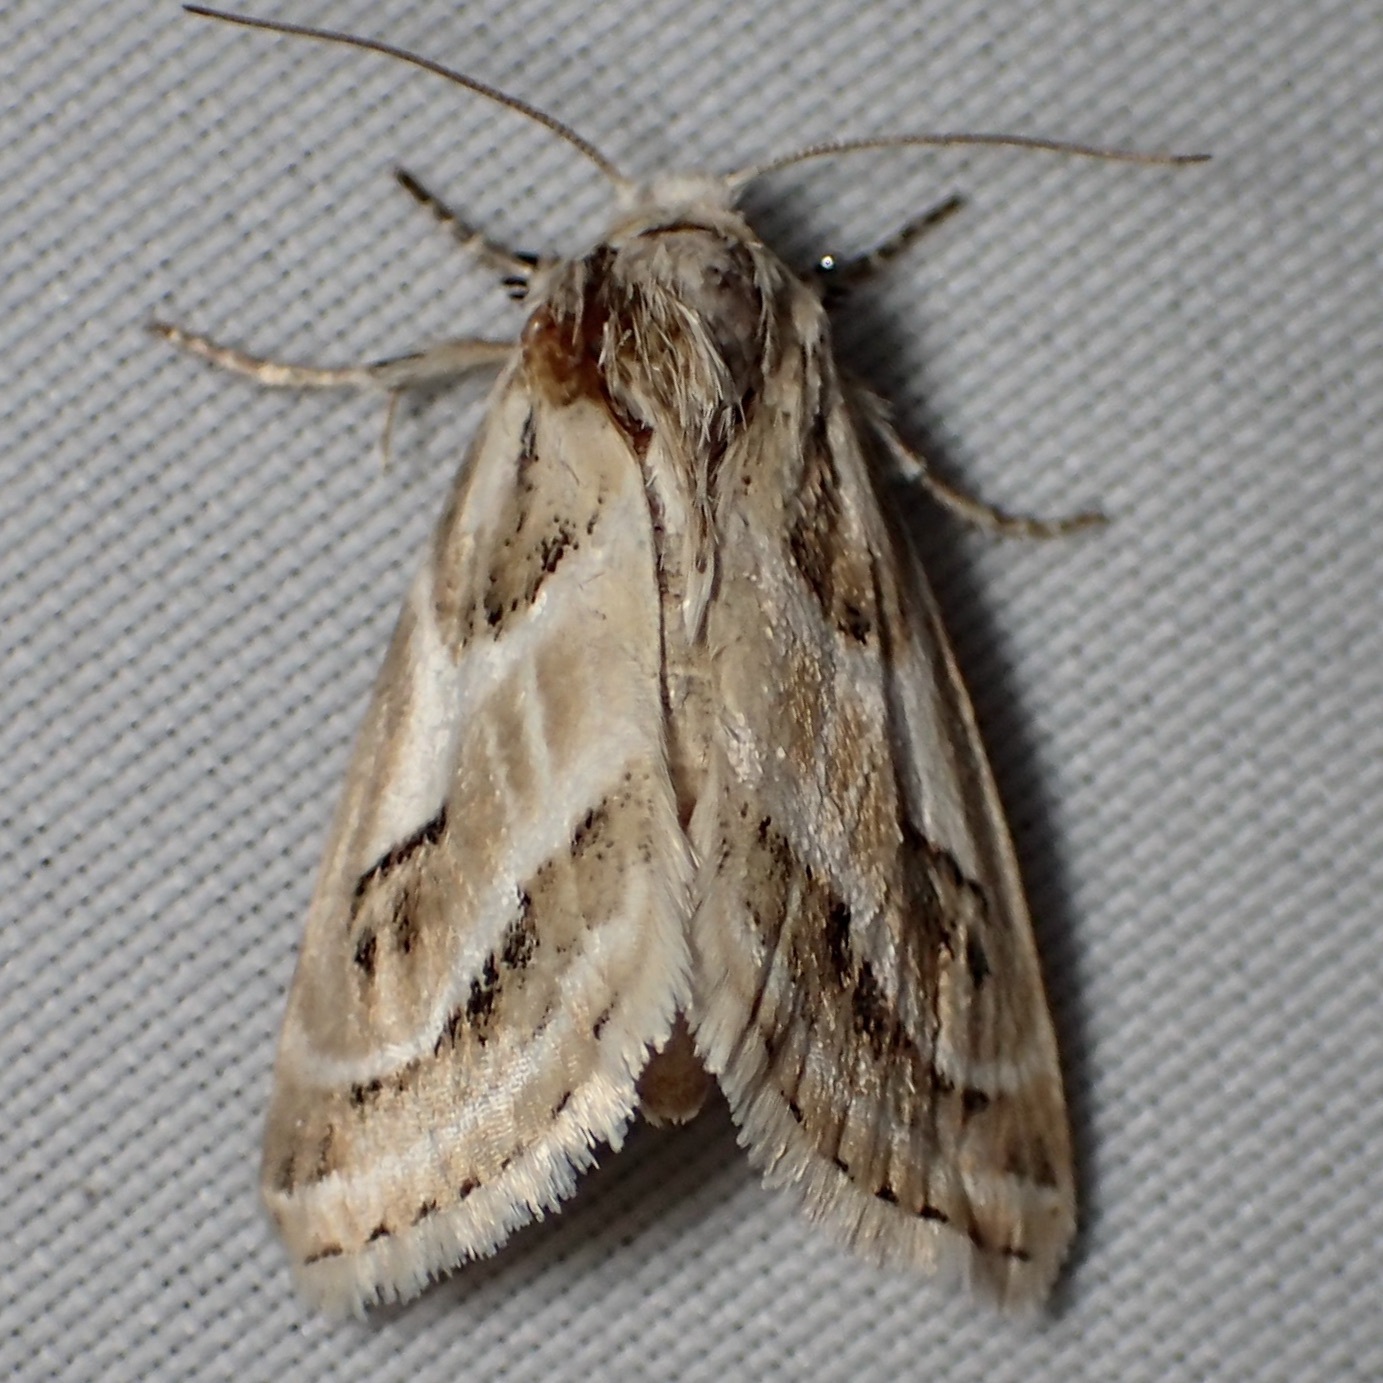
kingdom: Animalia
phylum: Arthropoda
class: Insecta
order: Lepidoptera
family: Noctuidae
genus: Schinia
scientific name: Schinia accessa
